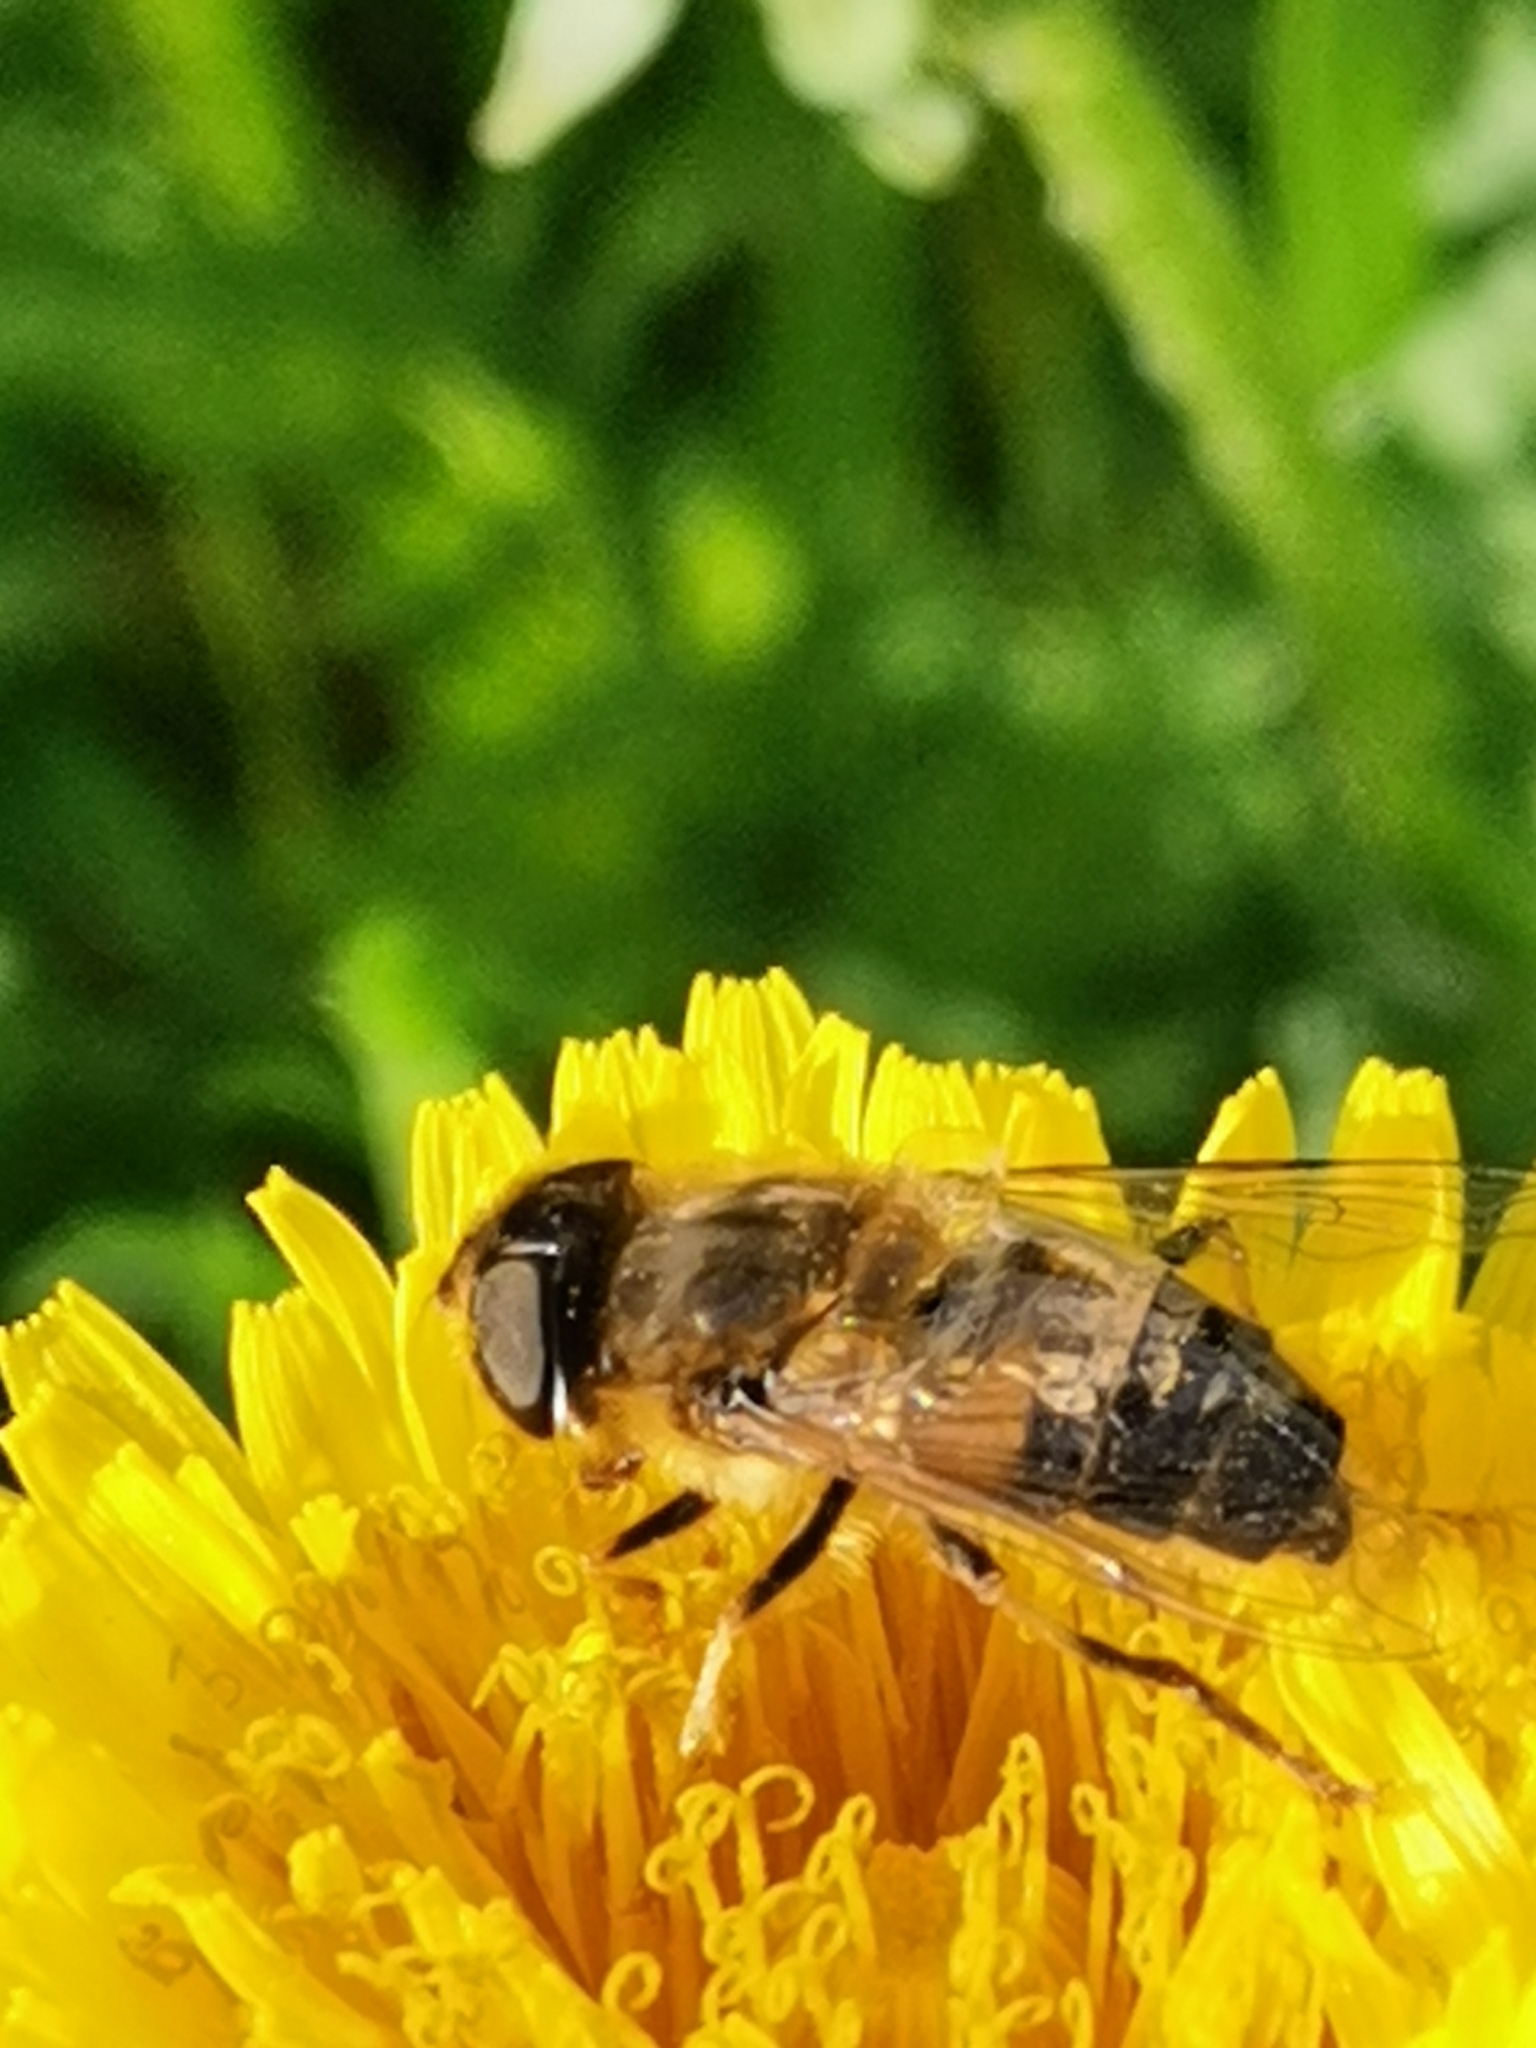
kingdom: Animalia
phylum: Arthropoda
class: Insecta
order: Diptera
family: Syrphidae
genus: Eristalis
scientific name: Eristalis pertinax
